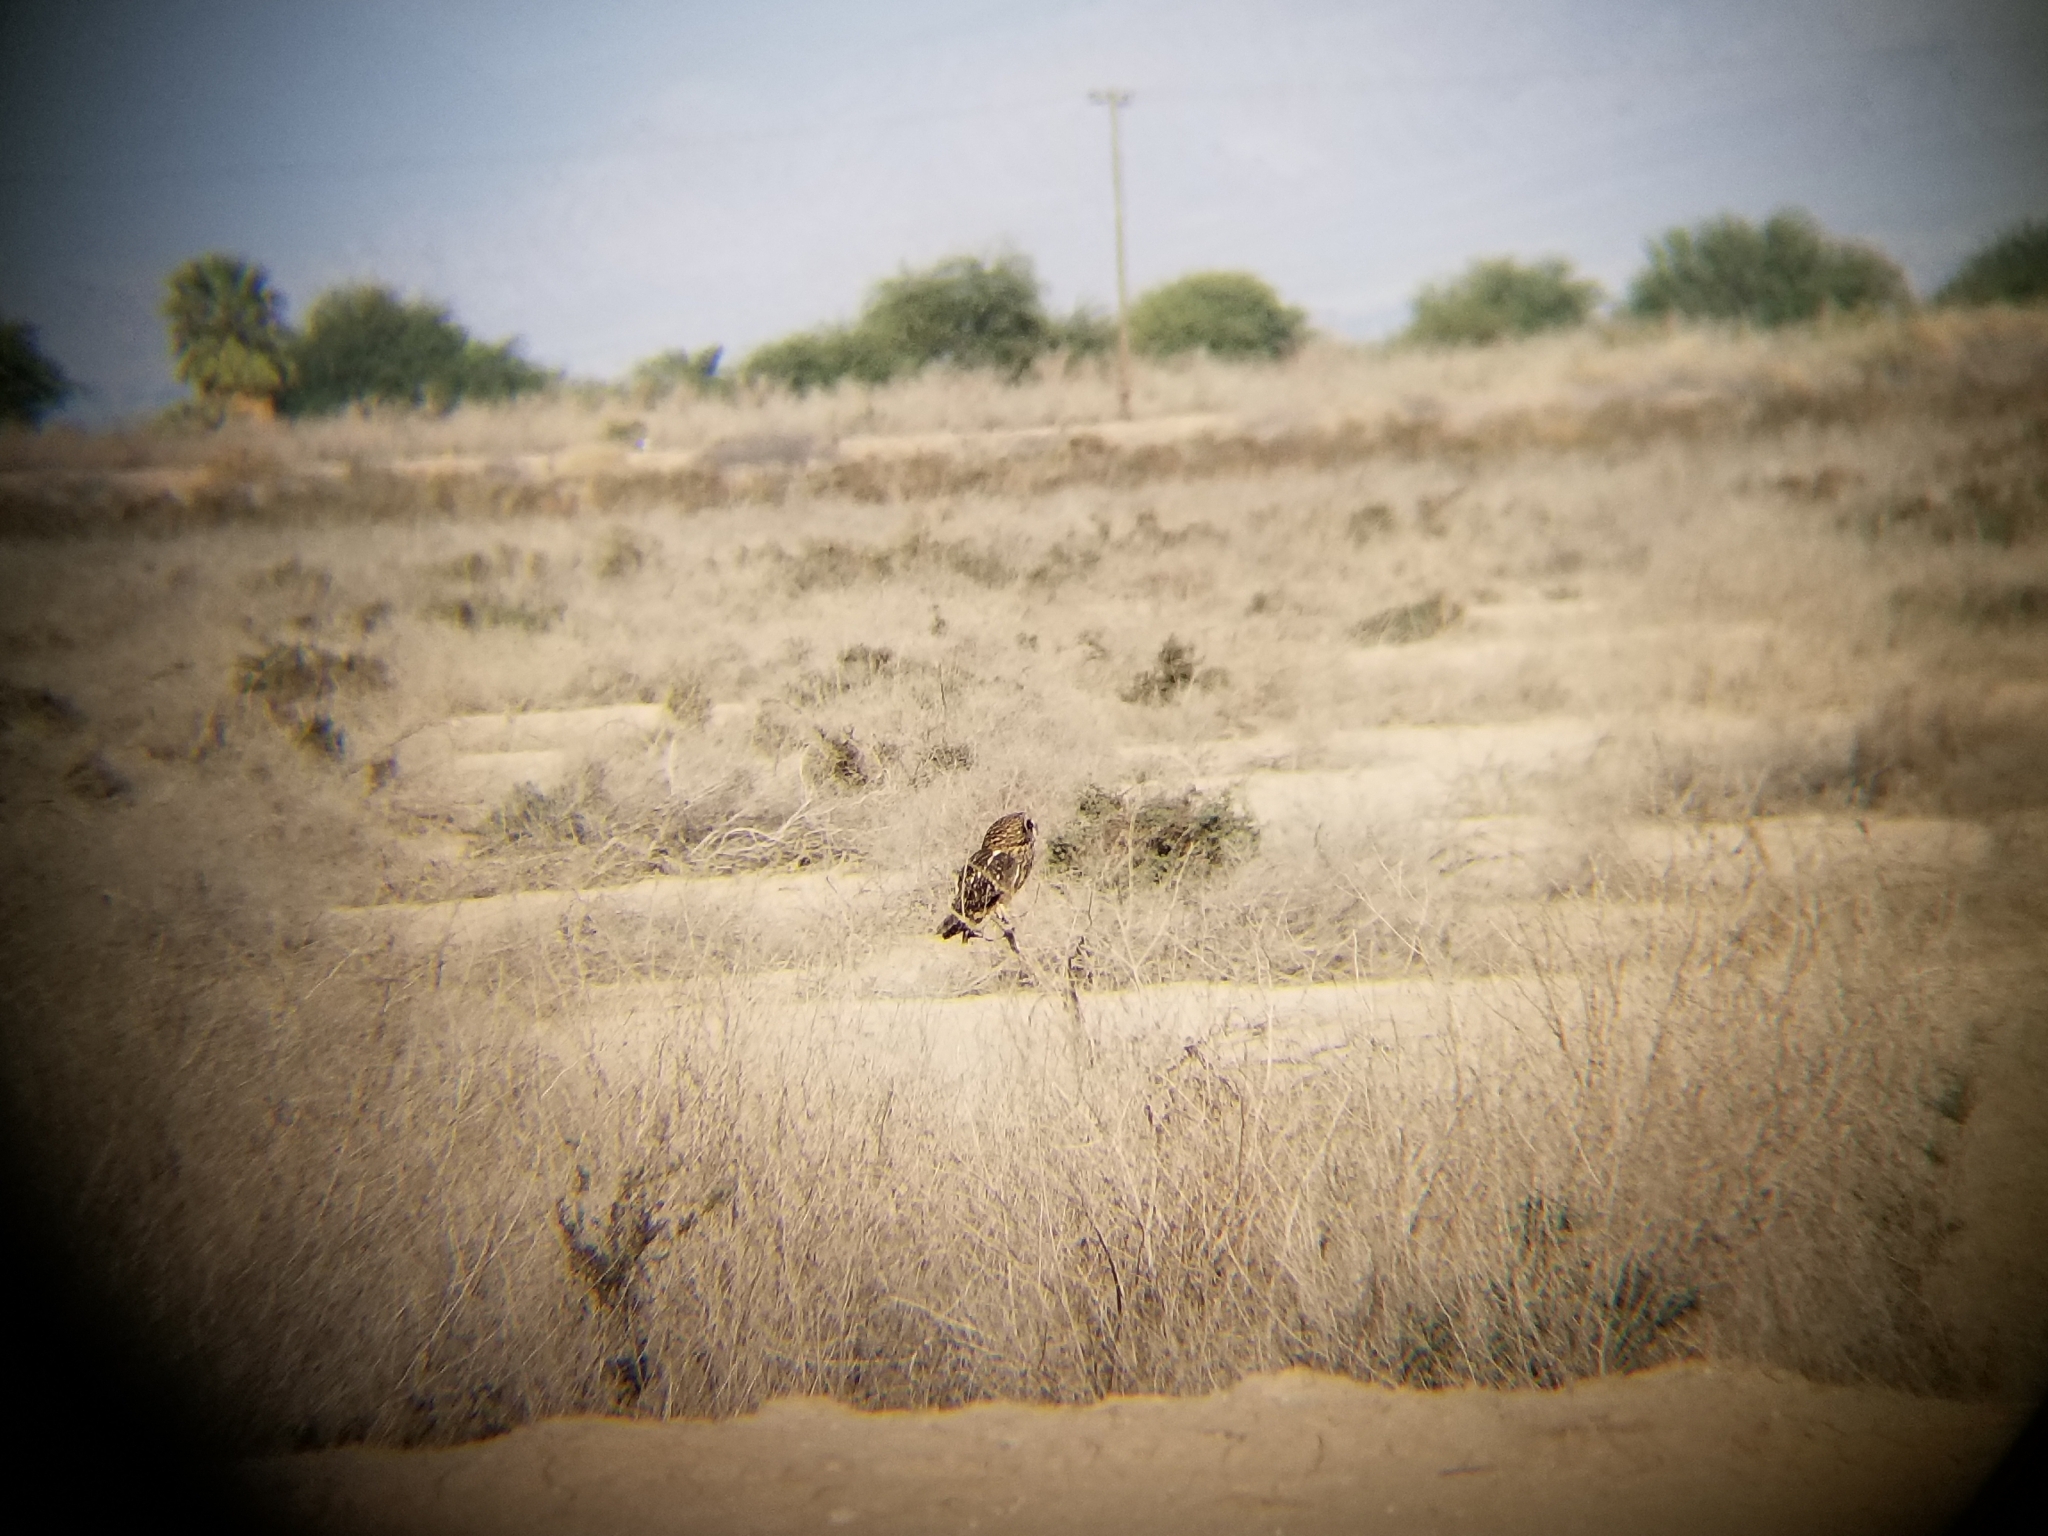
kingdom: Animalia
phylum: Chordata
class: Aves
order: Strigiformes
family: Strigidae
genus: Asio
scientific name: Asio flammeus
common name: Short-eared owl
